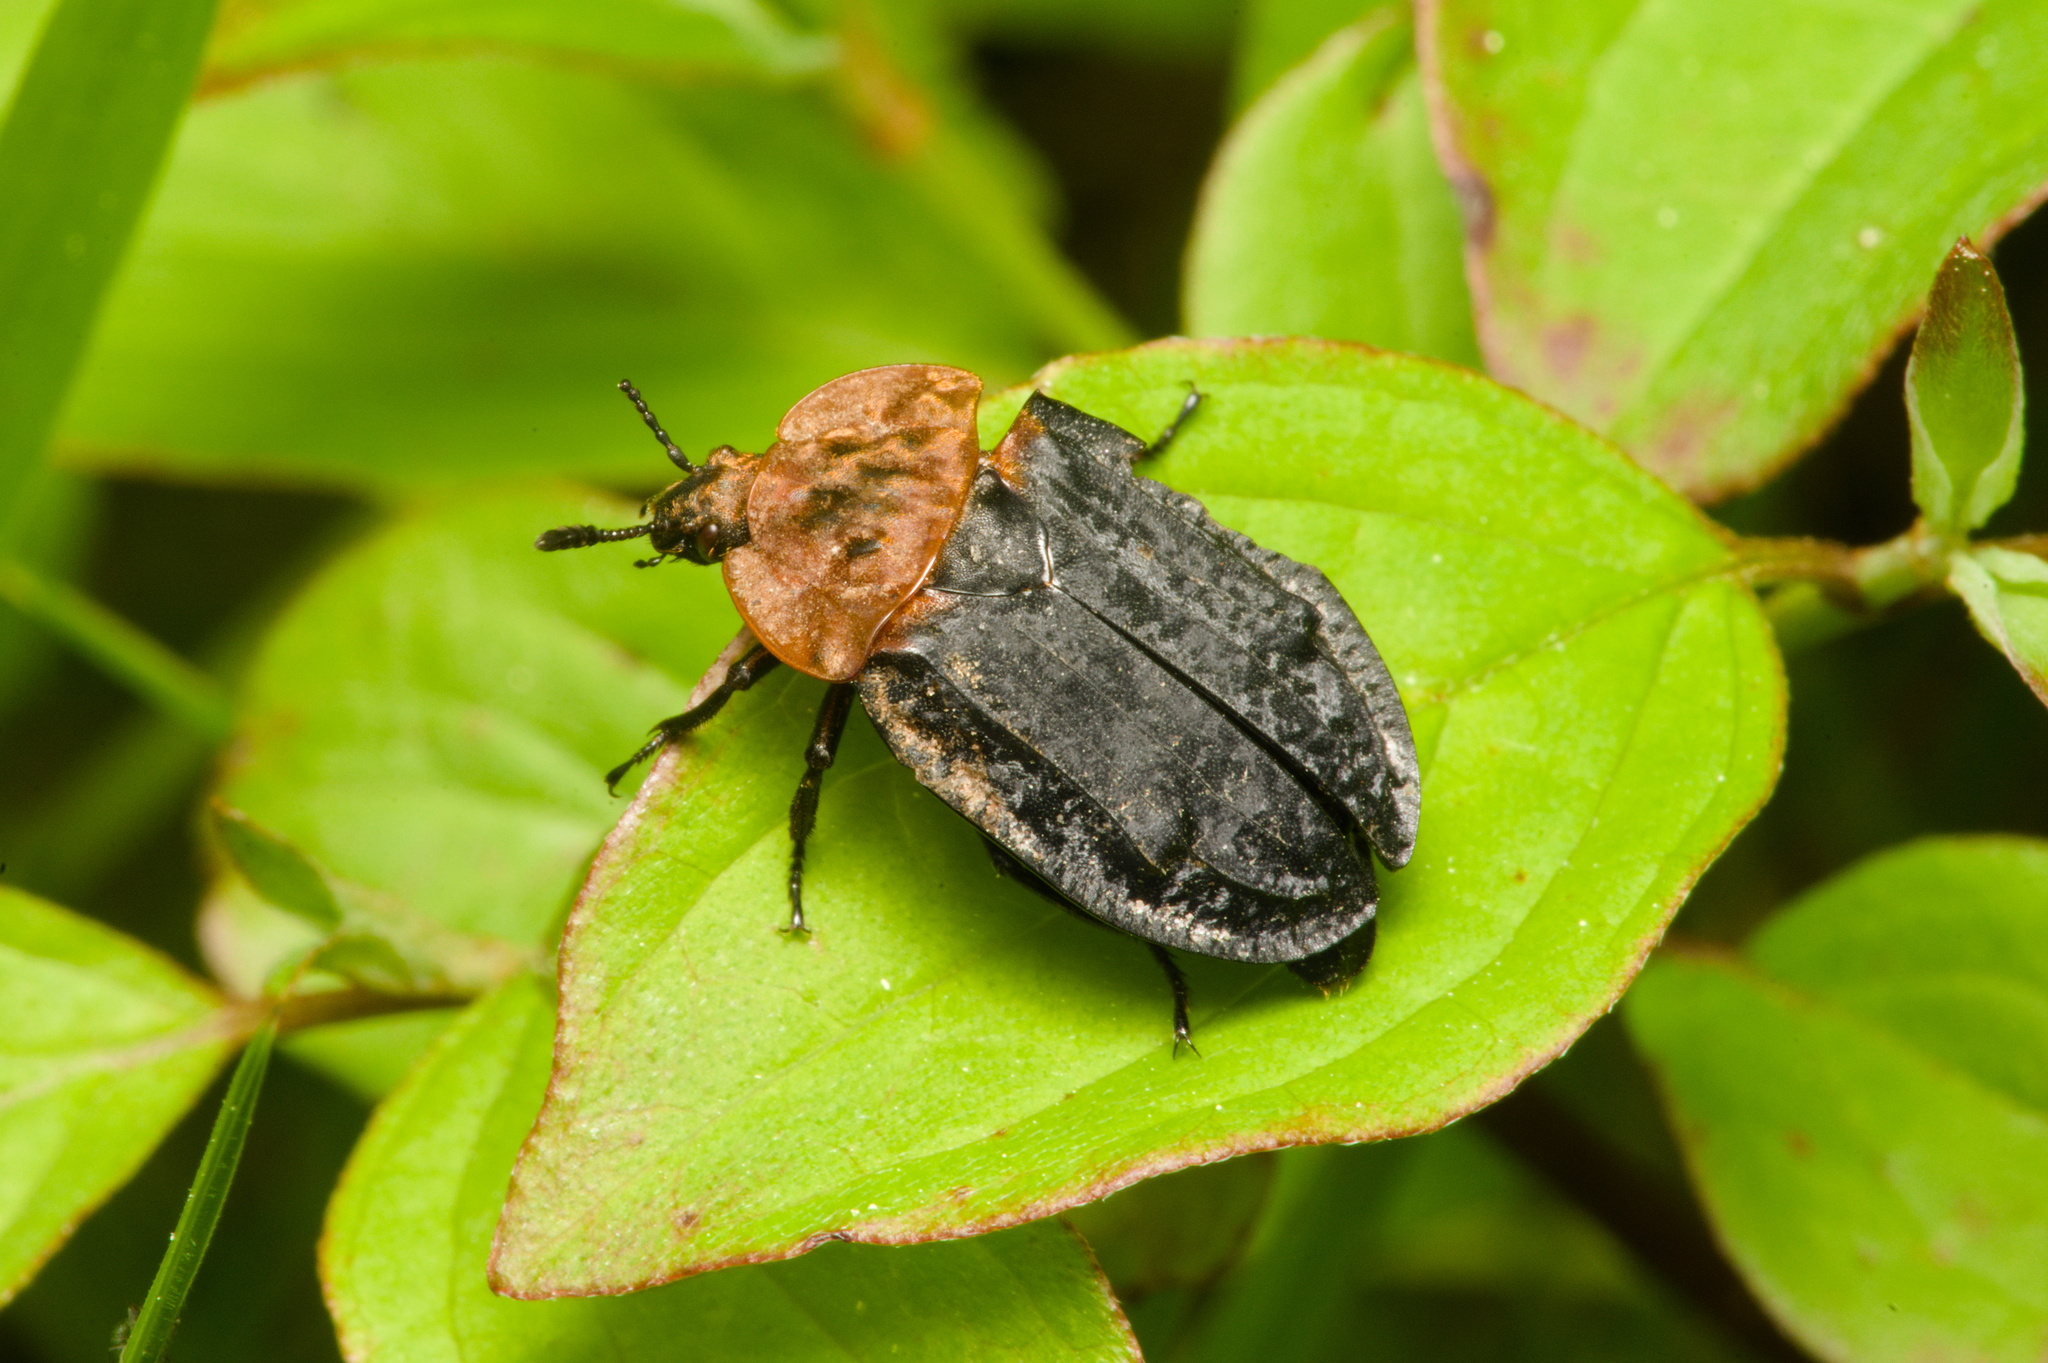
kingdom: Animalia
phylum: Arthropoda
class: Insecta
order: Coleoptera
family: Staphylinidae
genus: Oiceoptoma
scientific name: Oiceoptoma thoracicum
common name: Red-breasted carrion beetle
